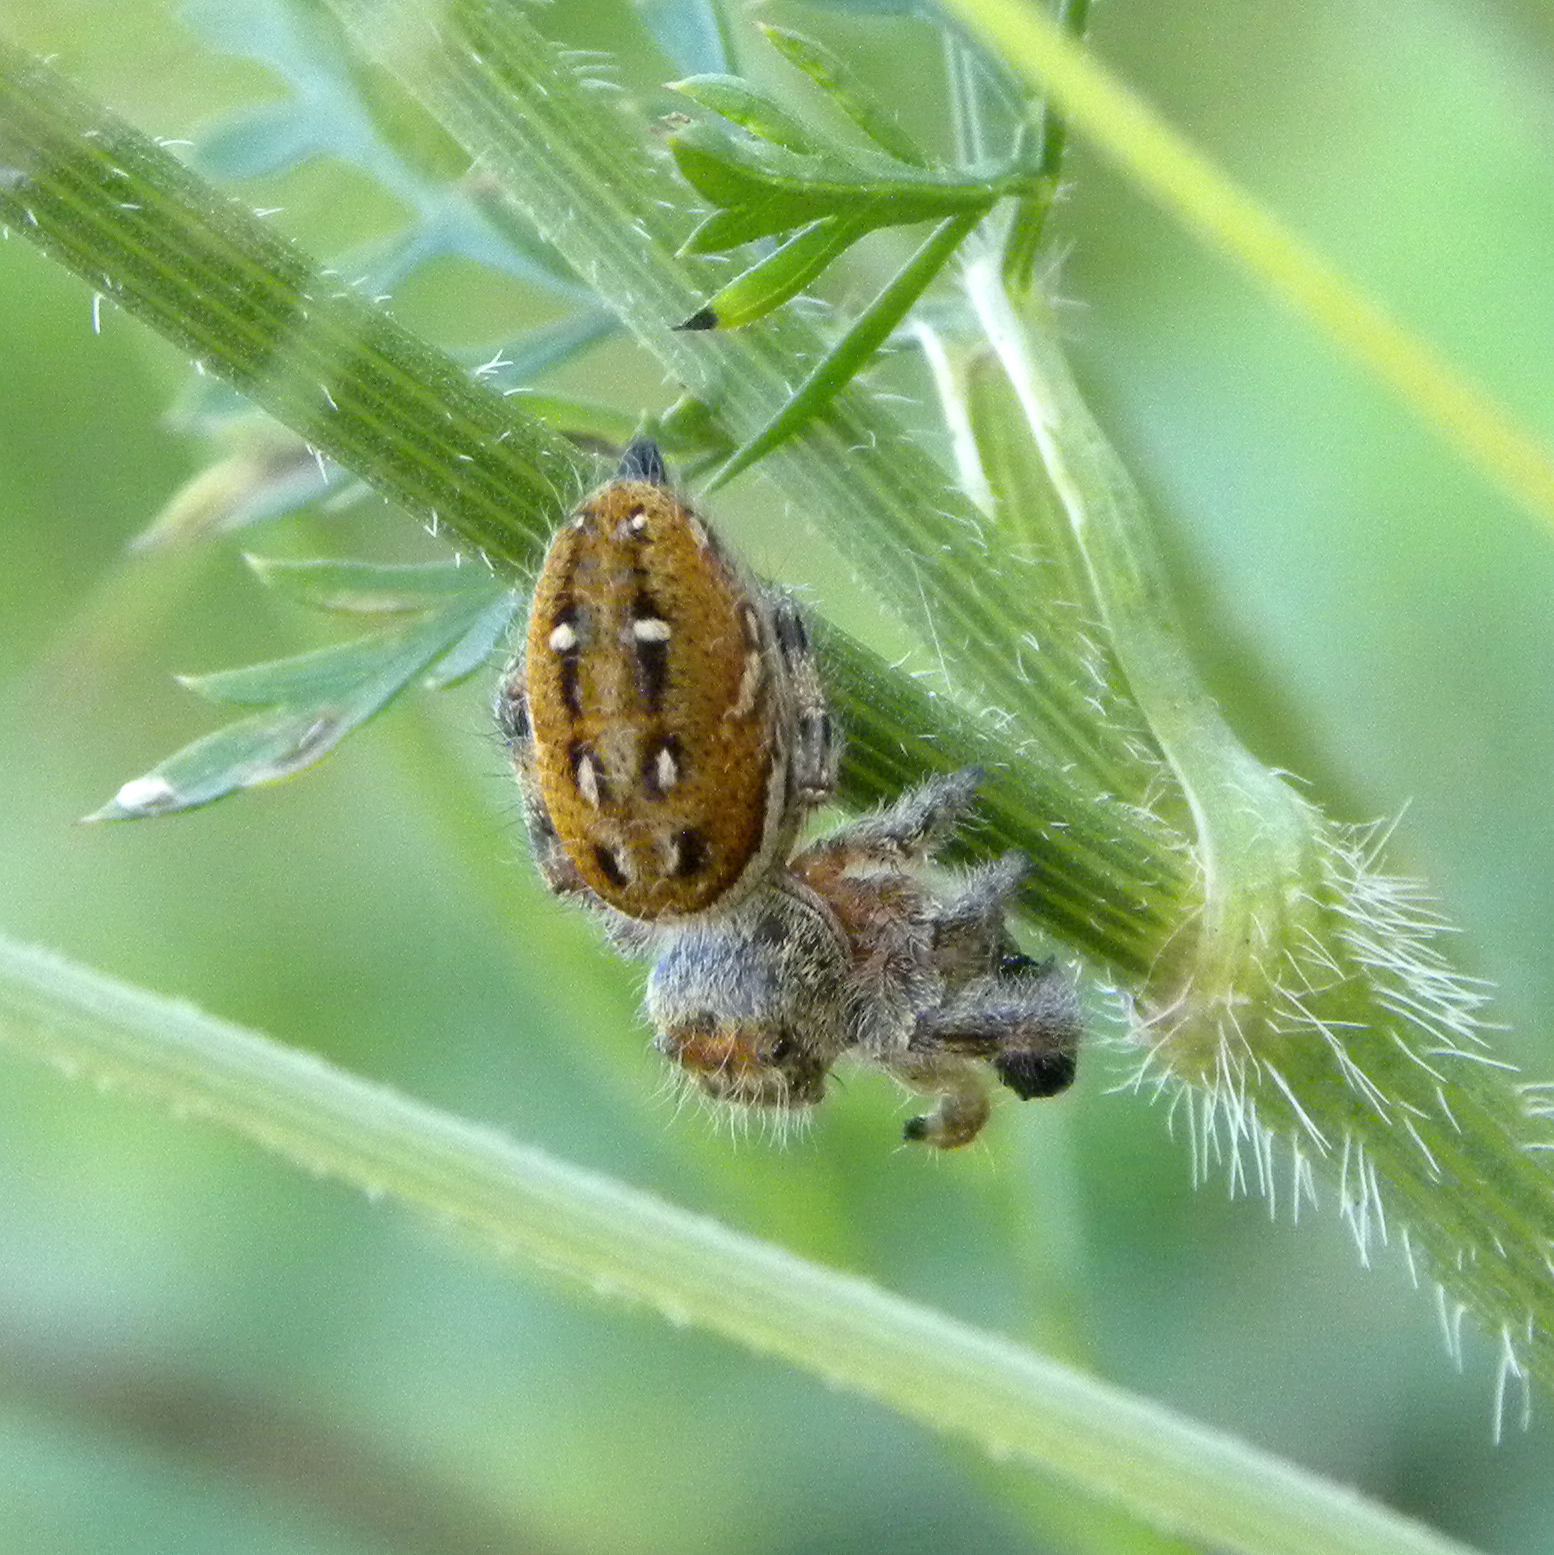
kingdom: Animalia
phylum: Arthropoda
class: Arachnida
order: Araneae
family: Salticidae
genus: Phidippus
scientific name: Phidippus clarus
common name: Brilliant jumping spider
